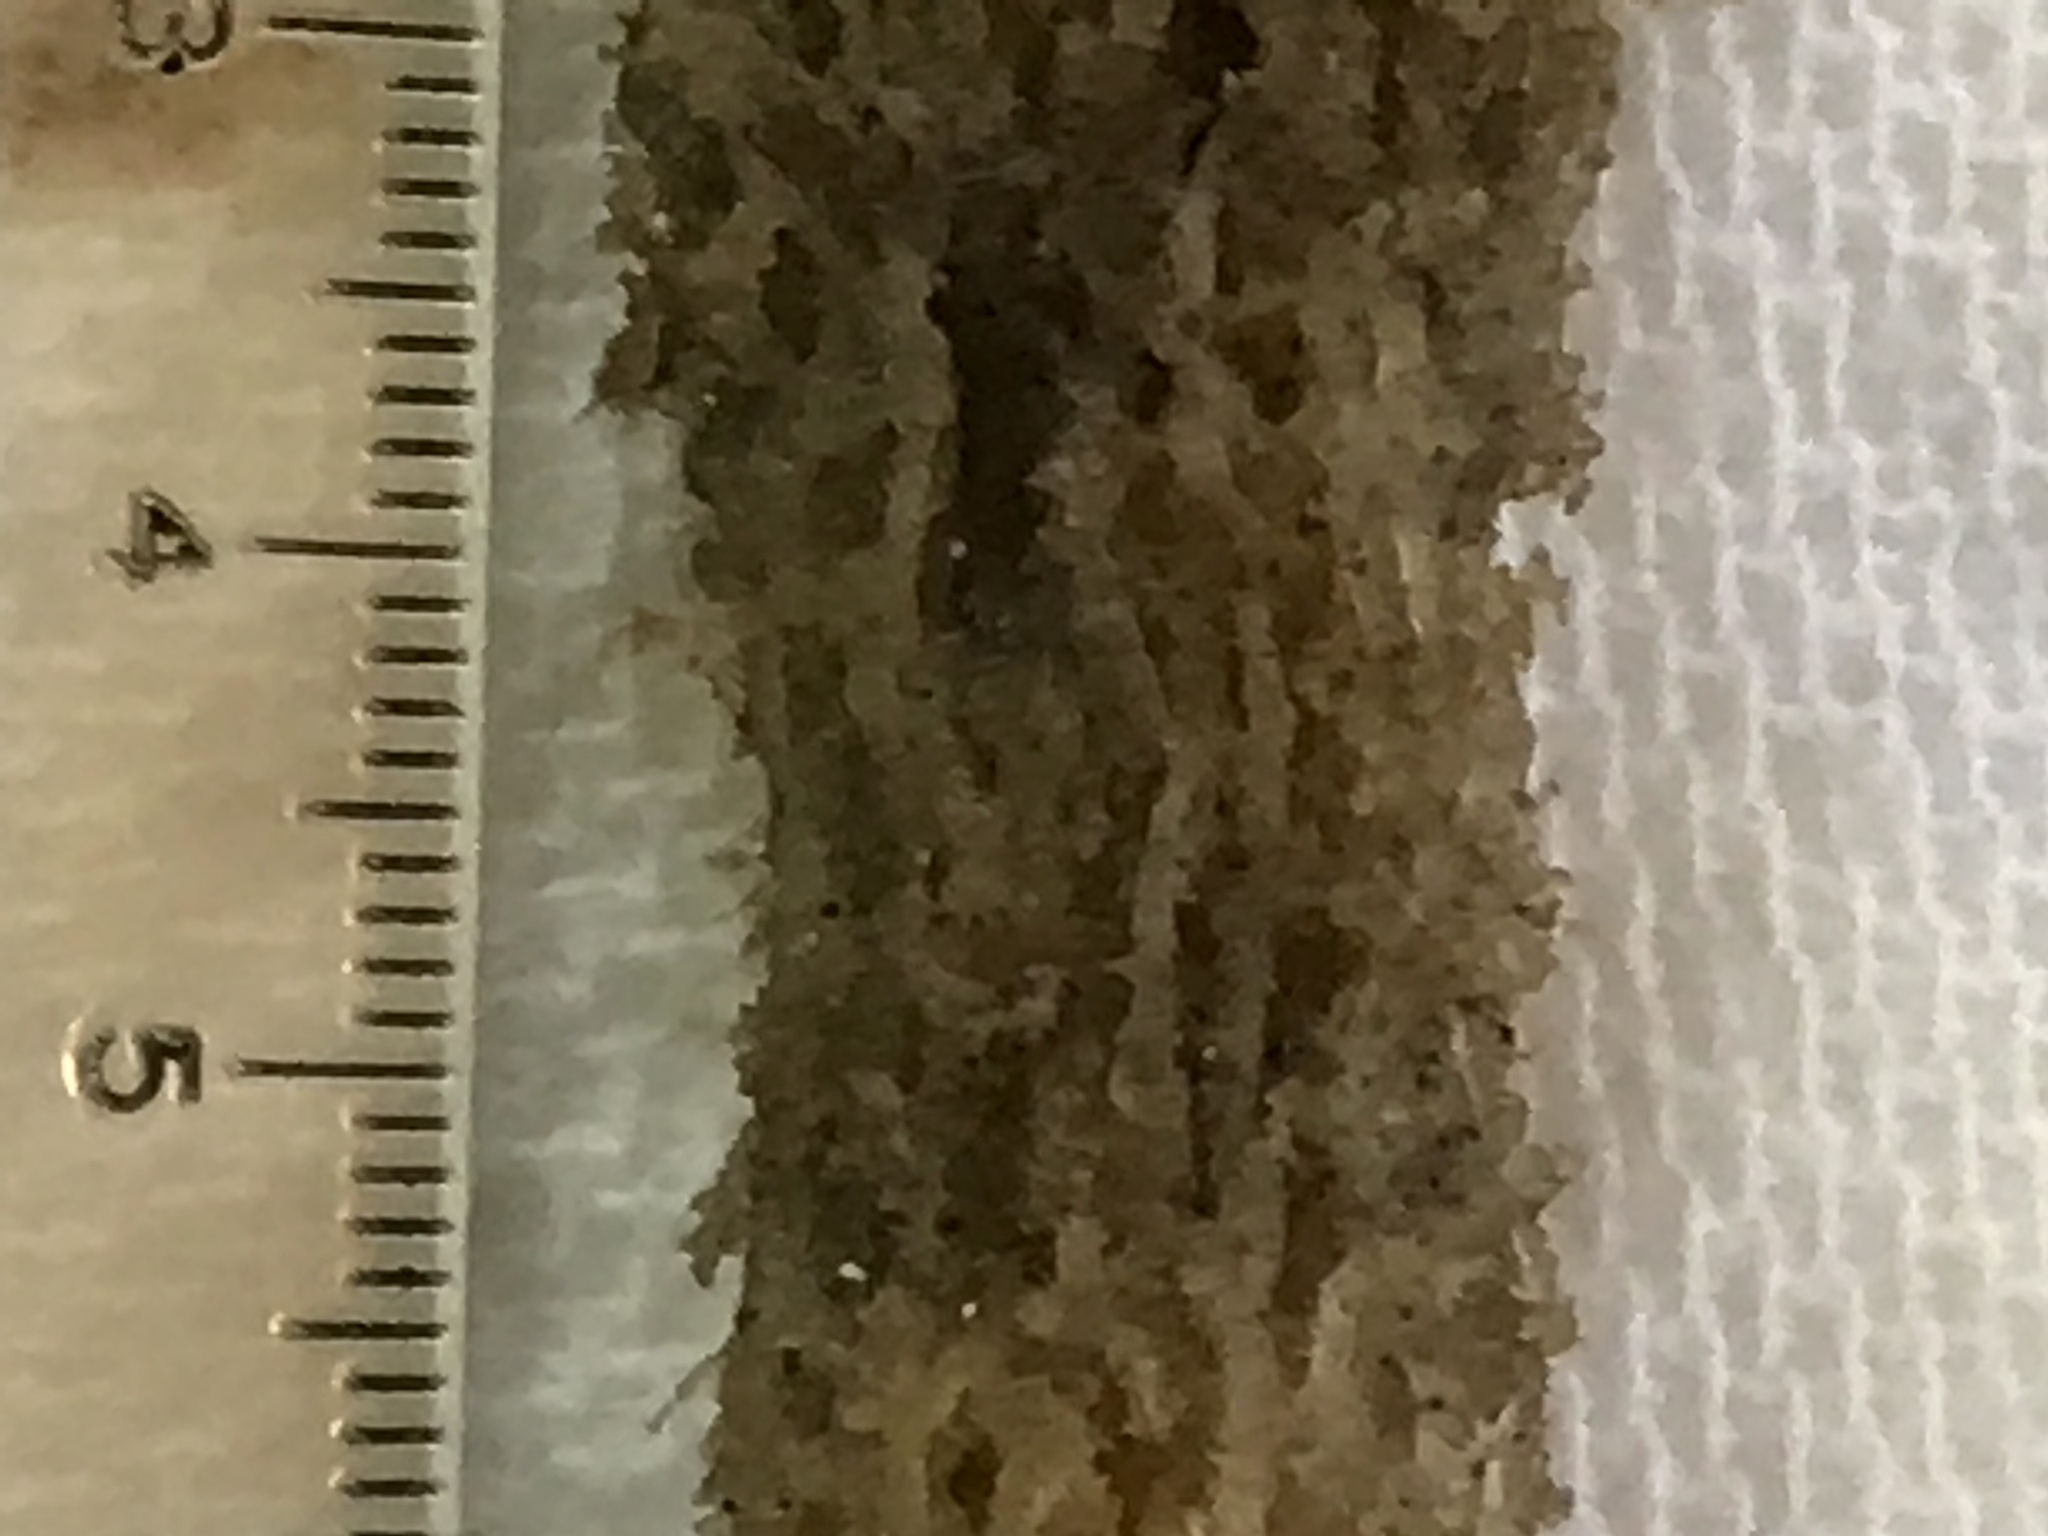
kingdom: Fungi
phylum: Basidiomycota
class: Agaricomycetes
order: Boletales
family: Calostomataceae
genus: Calostoma
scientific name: Calostoma lutescens
